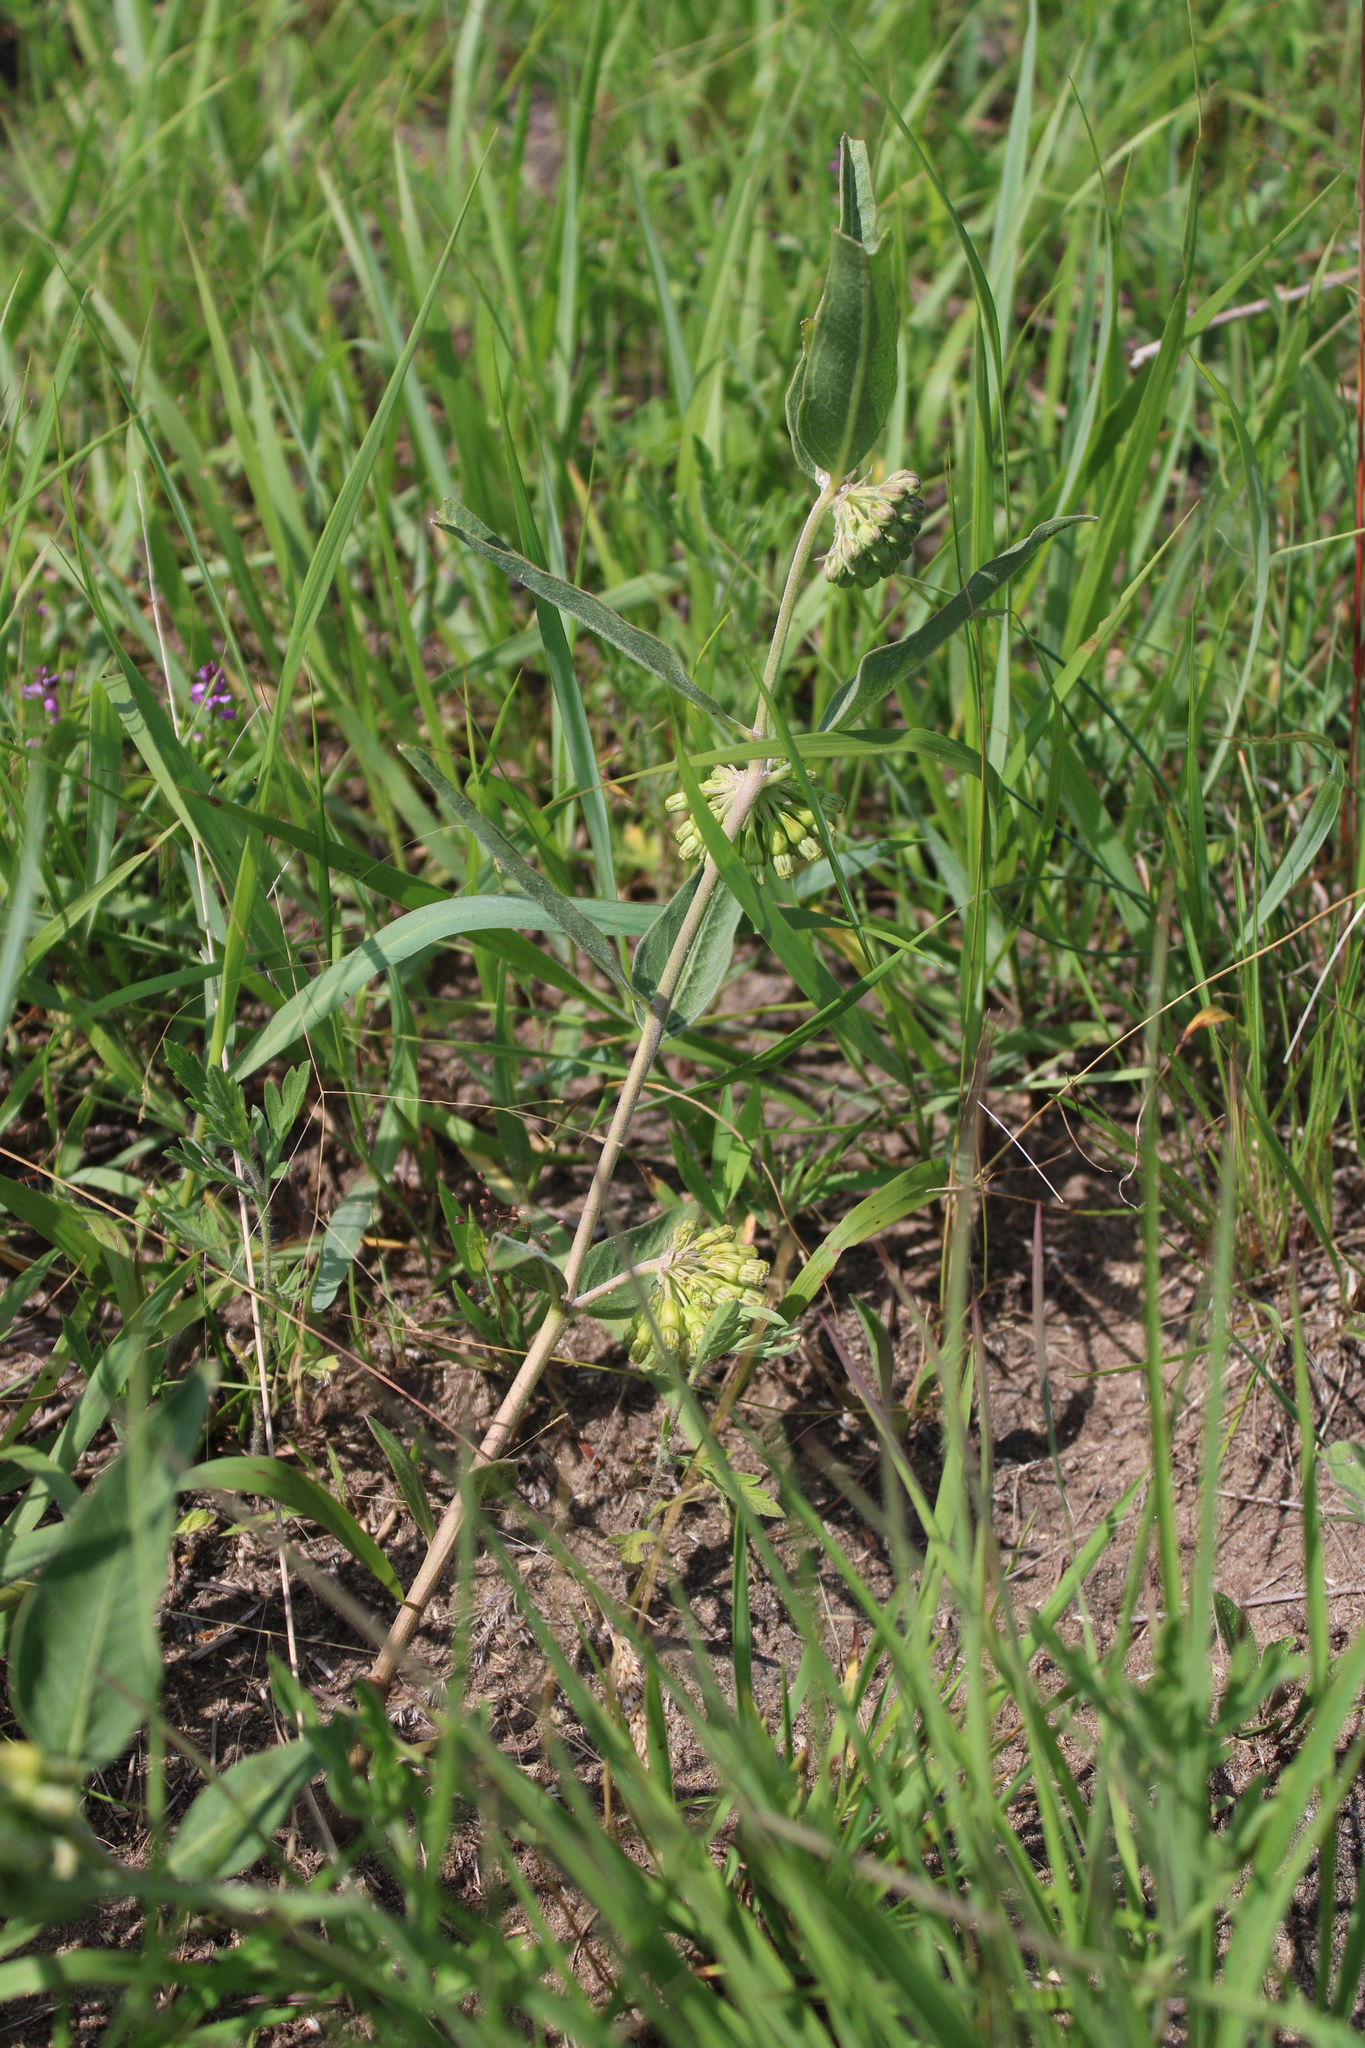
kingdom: Plantae
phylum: Tracheophyta
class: Magnoliopsida
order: Gentianales
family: Apocynaceae
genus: Asclepias
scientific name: Asclepias viridiflora
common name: Green comet milkweed
